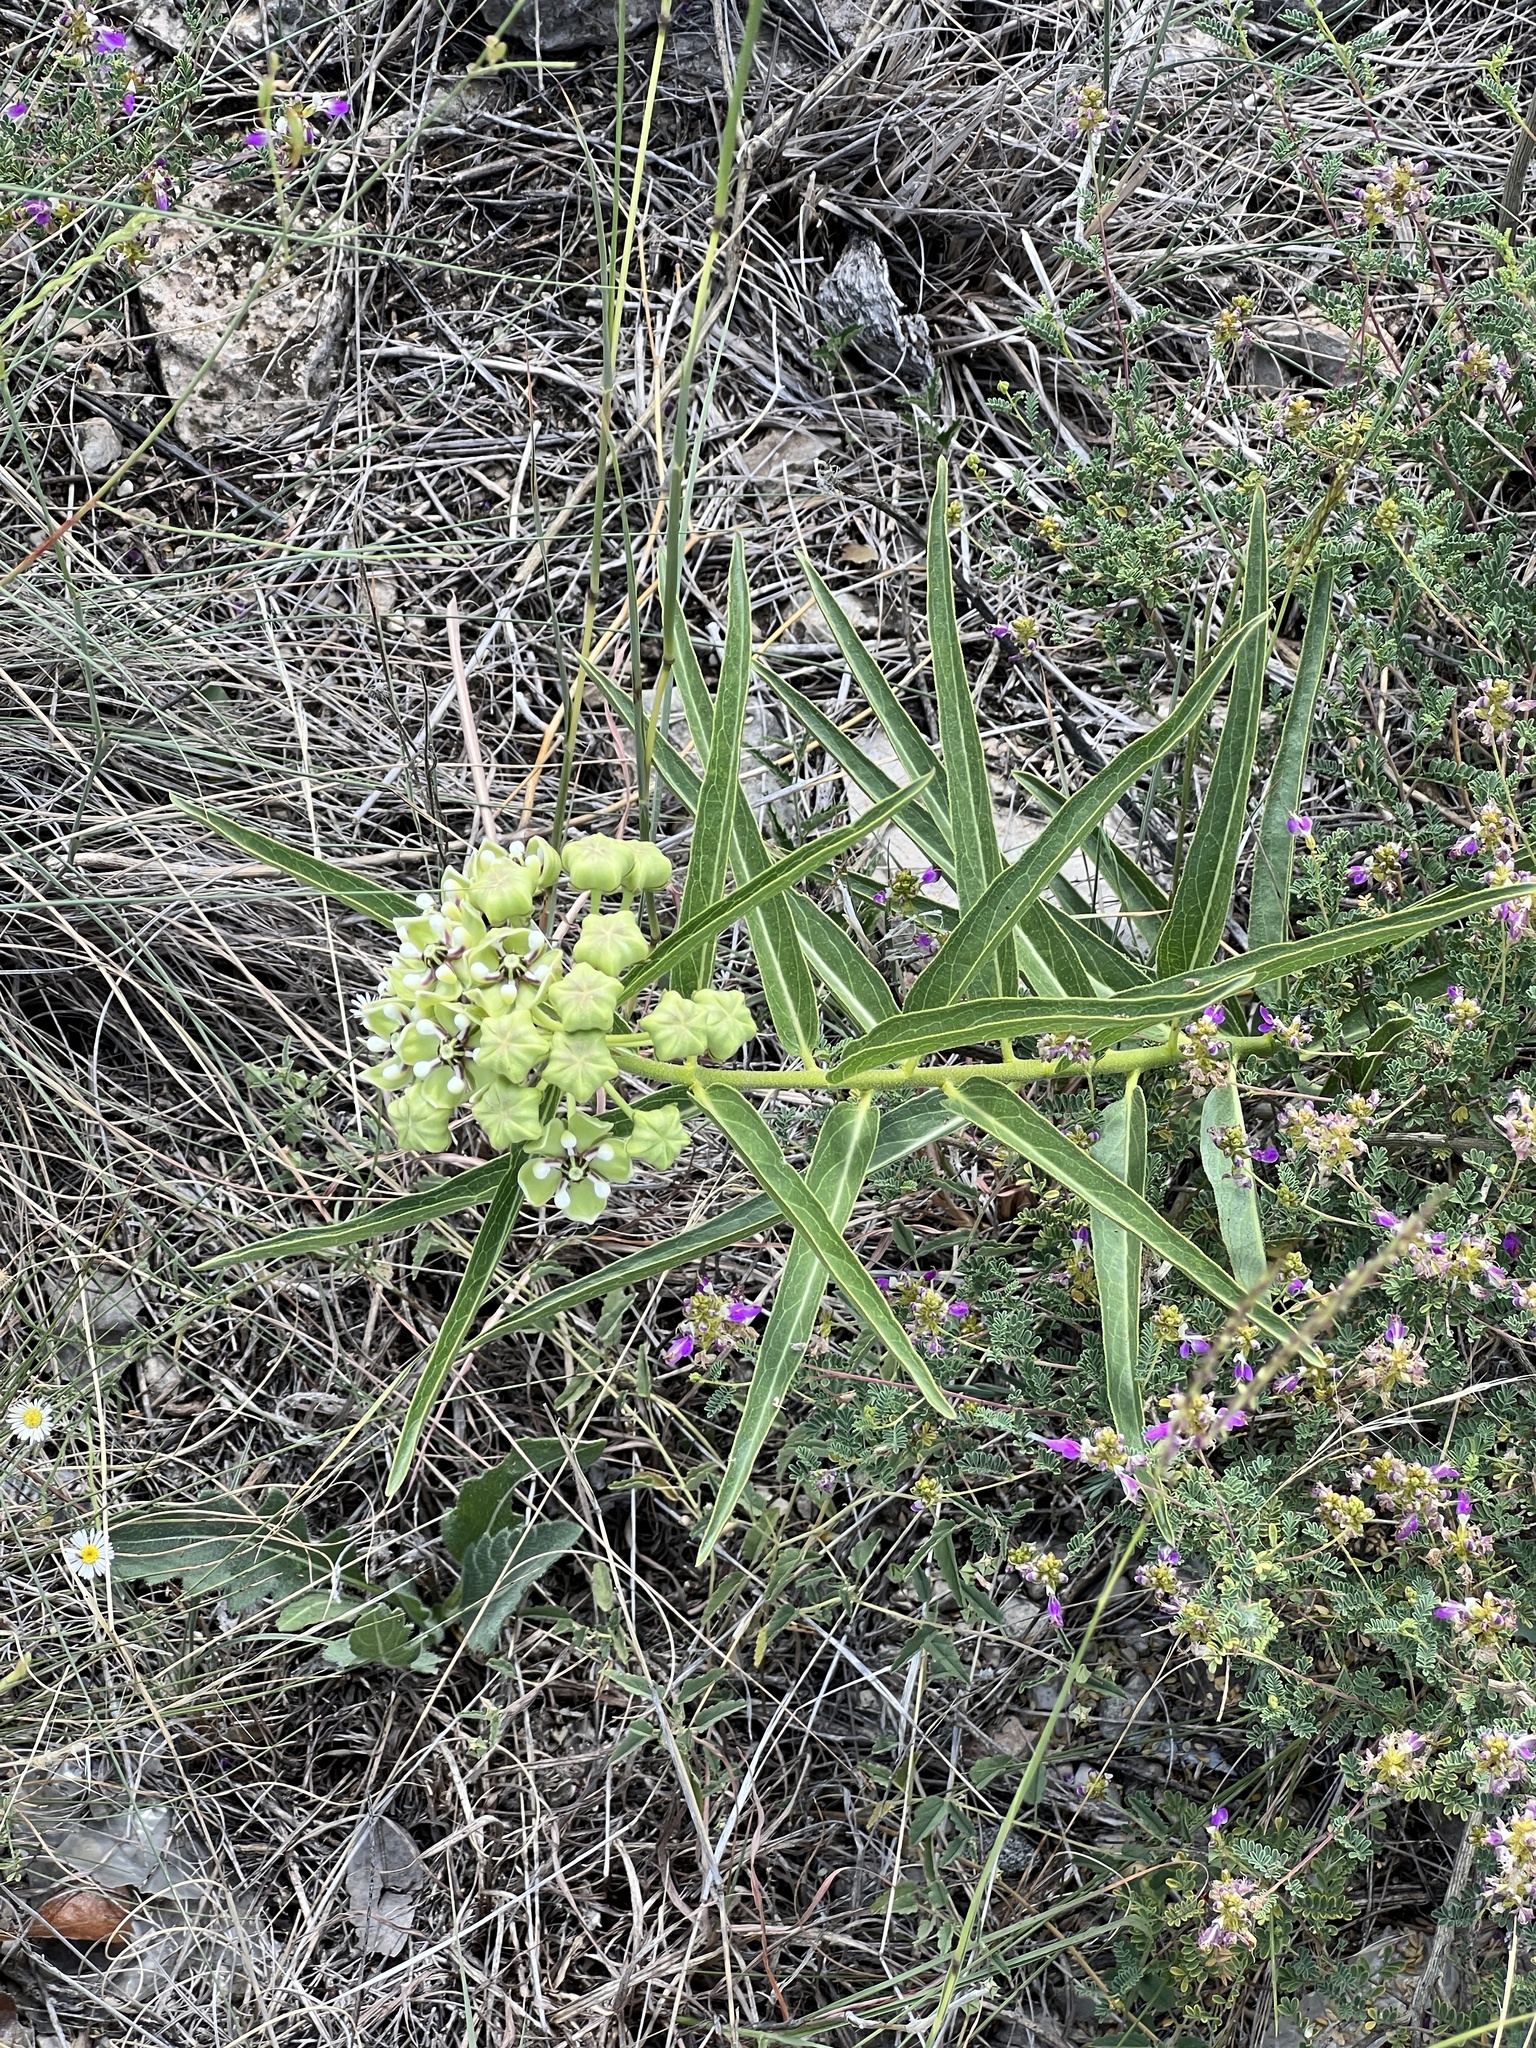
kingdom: Plantae
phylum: Tracheophyta
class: Magnoliopsida
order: Gentianales
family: Apocynaceae
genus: Asclepias
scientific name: Asclepias asperula
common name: Antelope horns
